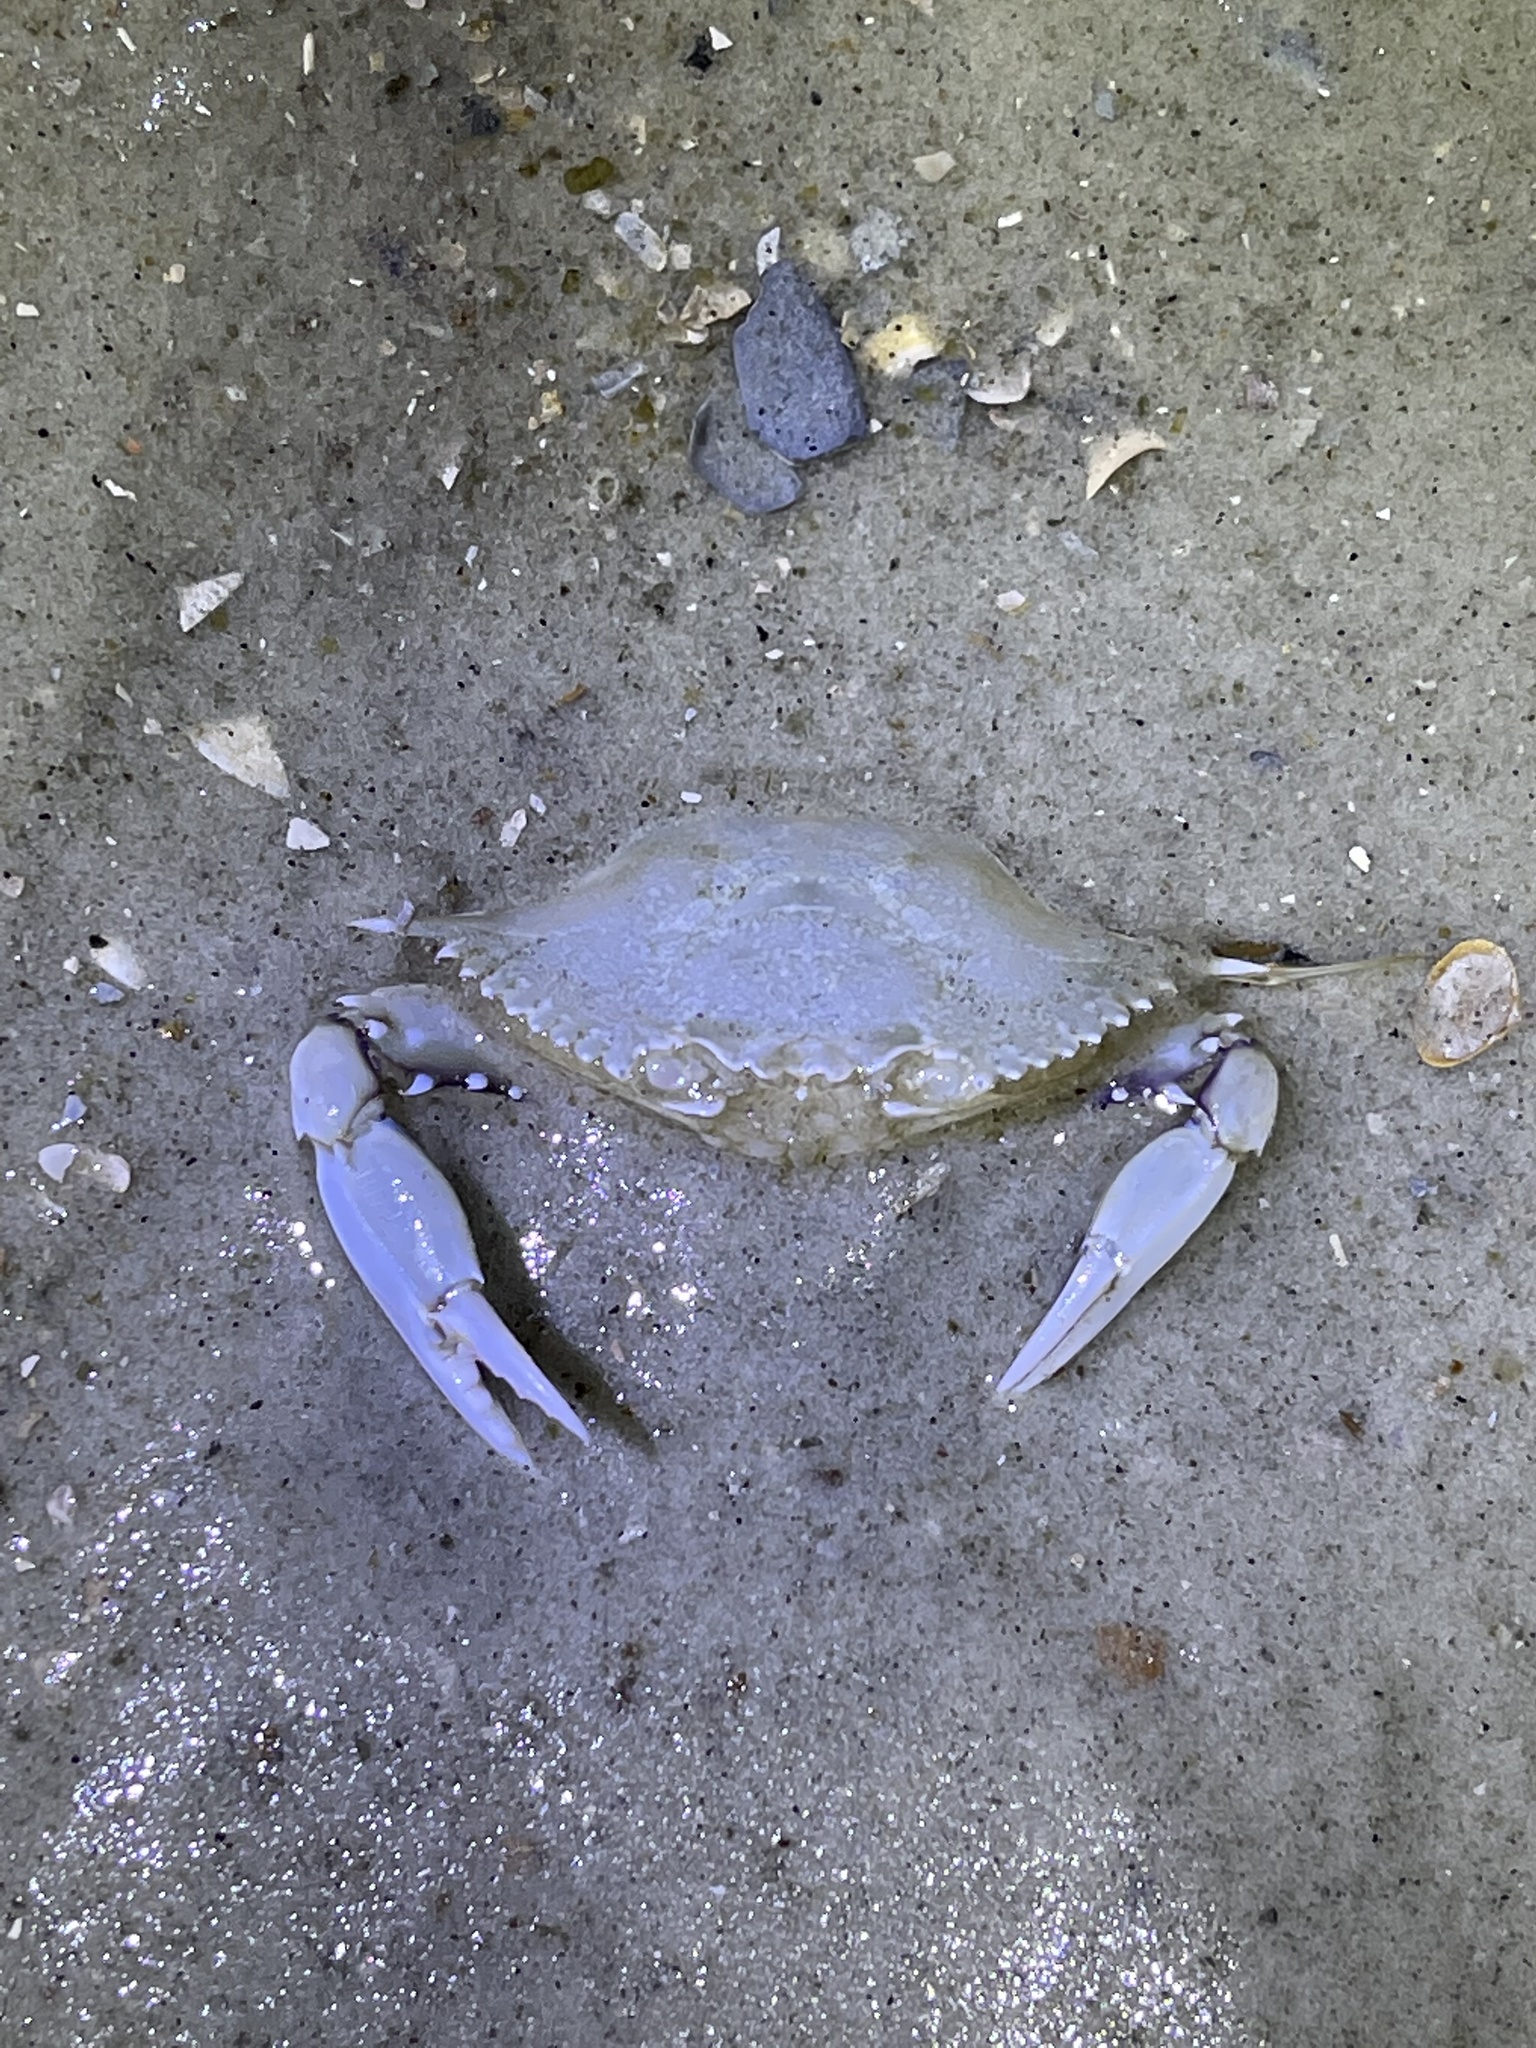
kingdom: Animalia
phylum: Arthropoda
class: Malacostraca
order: Decapoda
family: Portunidae
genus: Arenaeus
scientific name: Arenaeus cribrarius
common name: Speckled crab
